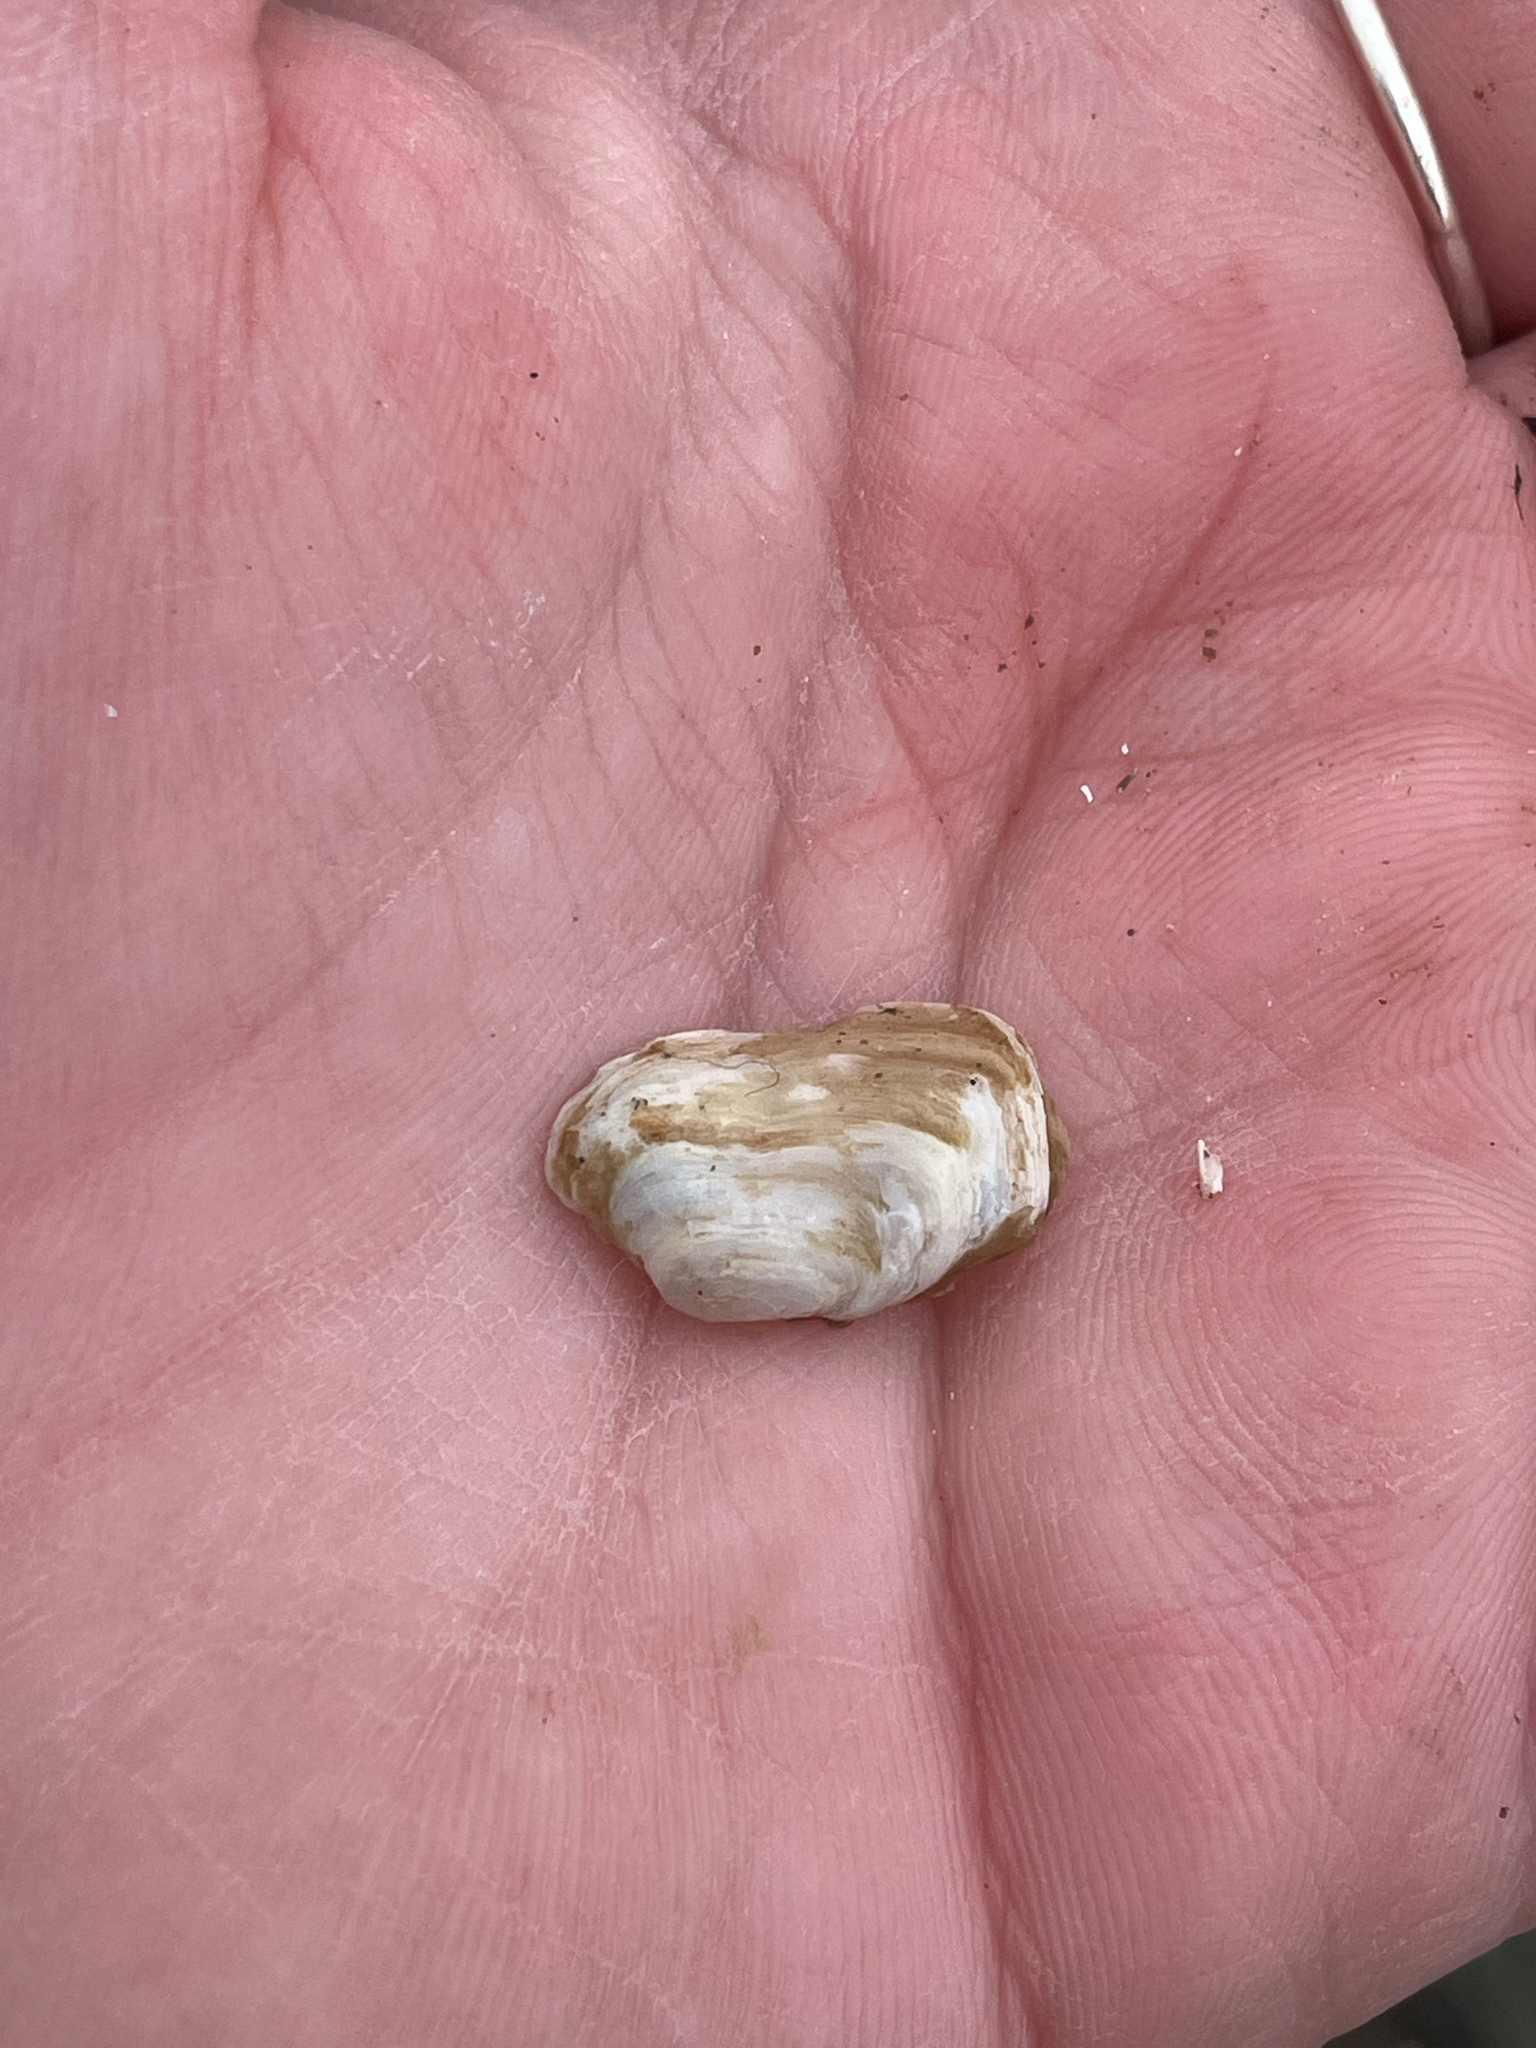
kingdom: Animalia
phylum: Mollusca
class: Bivalvia
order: Adapedonta
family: Hiatellidae
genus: Hiatella
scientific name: Hiatella arctica
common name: Arctic hiatella
